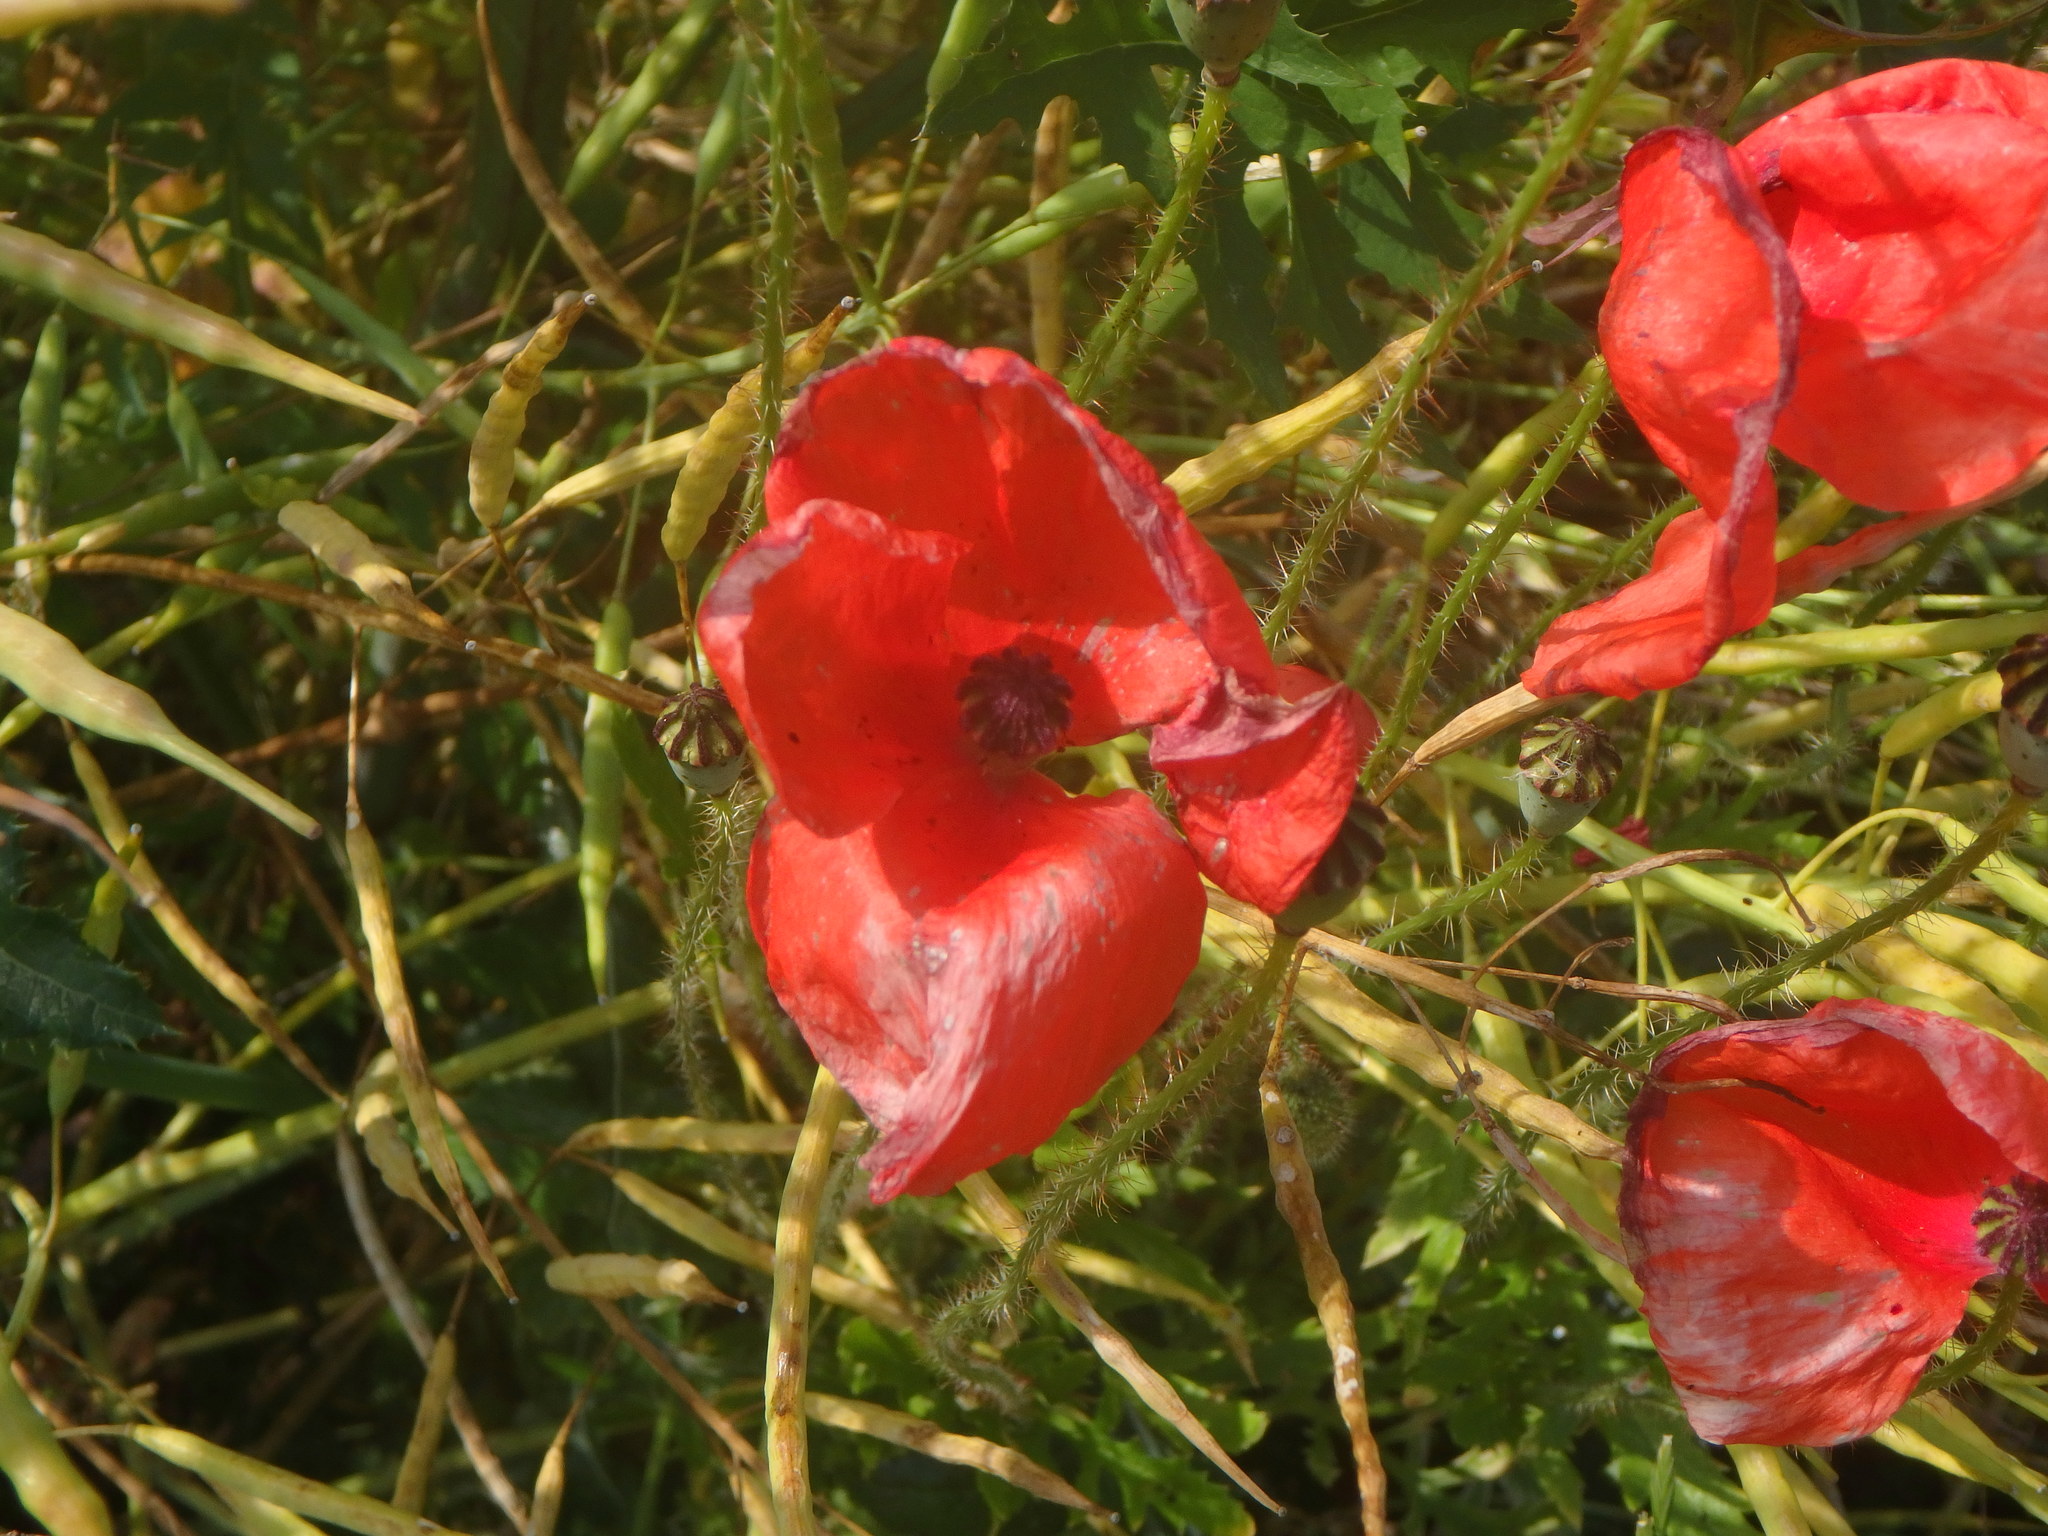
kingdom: Plantae
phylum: Tracheophyta
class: Magnoliopsida
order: Ranunculales
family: Papaveraceae
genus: Papaver
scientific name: Papaver rhoeas
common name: Corn poppy
